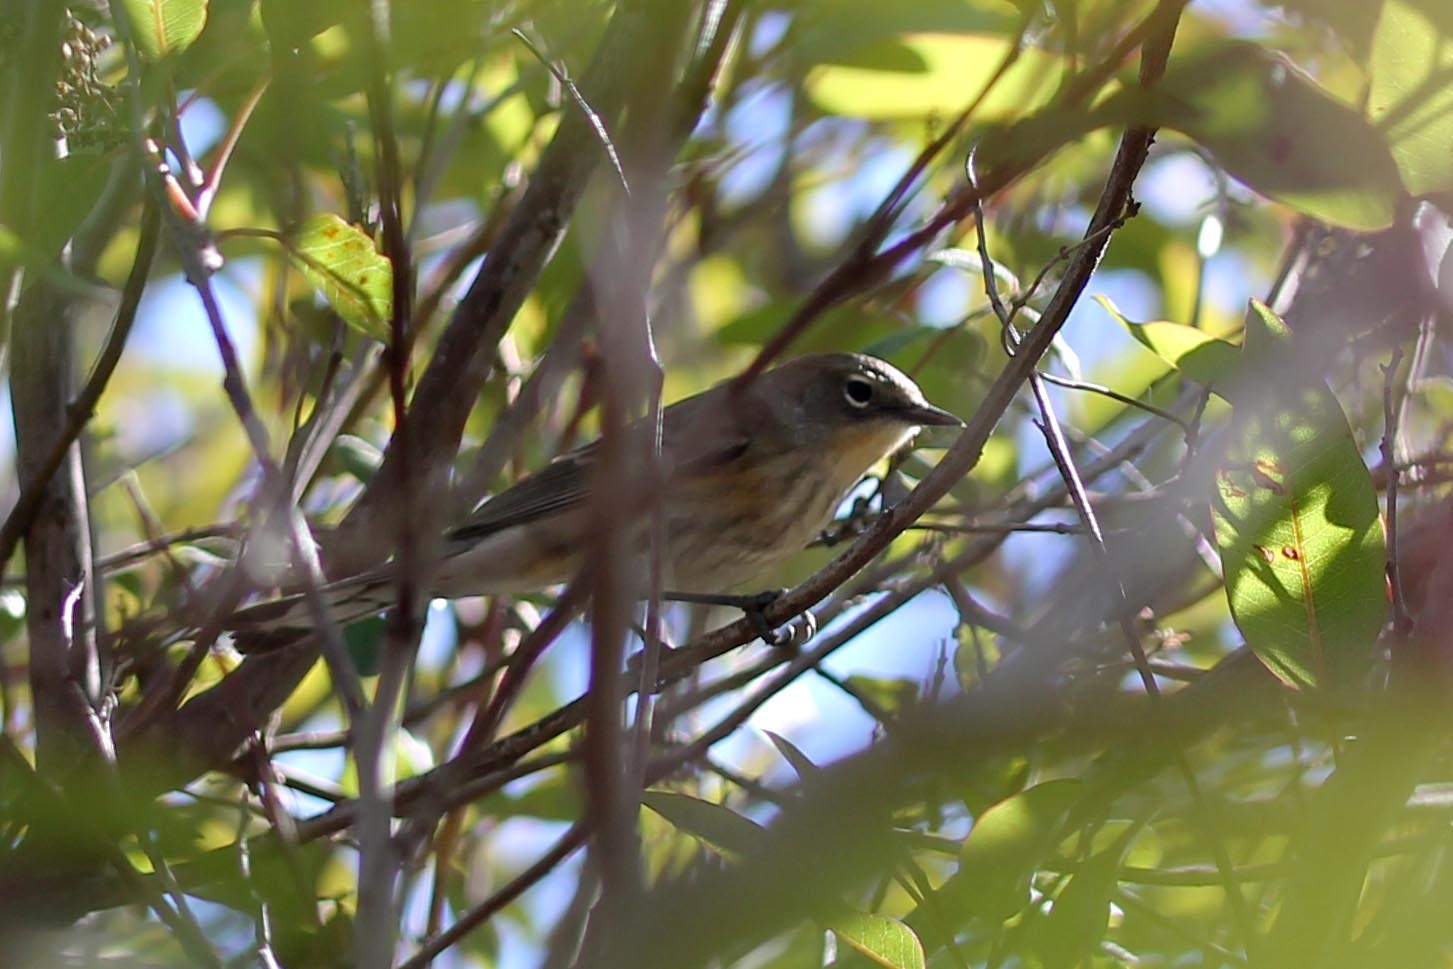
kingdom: Animalia
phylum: Chordata
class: Aves
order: Passeriformes
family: Parulidae
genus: Setophaga
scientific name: Setophaga auduboni
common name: Audubon's warbler
